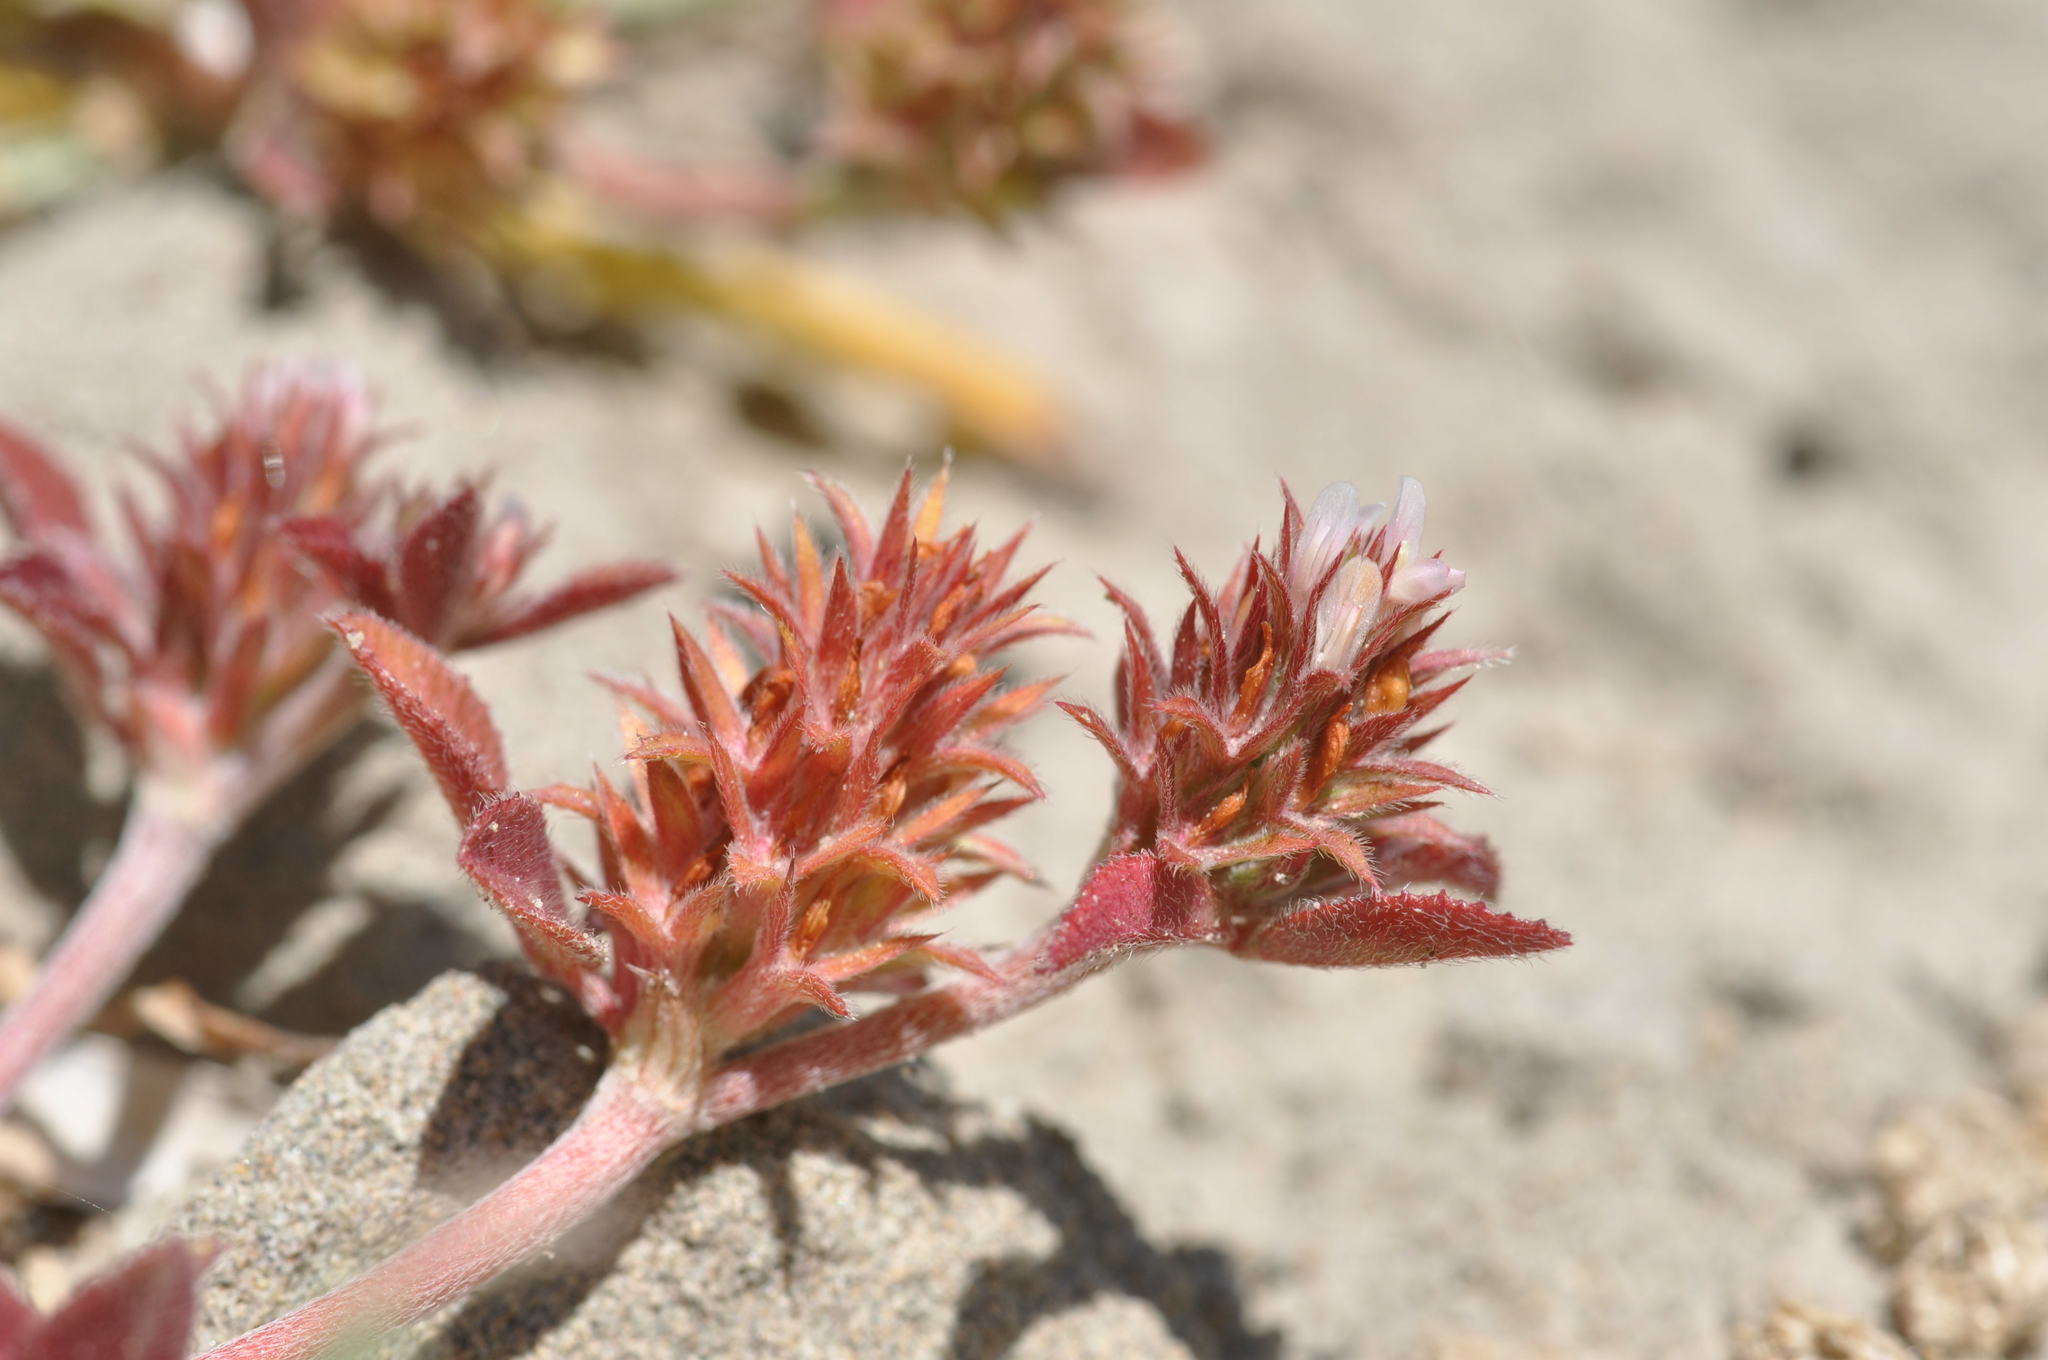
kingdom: Plantae
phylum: Tracheophyta
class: Magnoliopsida
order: Fabales
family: Fabaceae
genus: Trifolium
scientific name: Trifolium scabrum
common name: Rough clover
